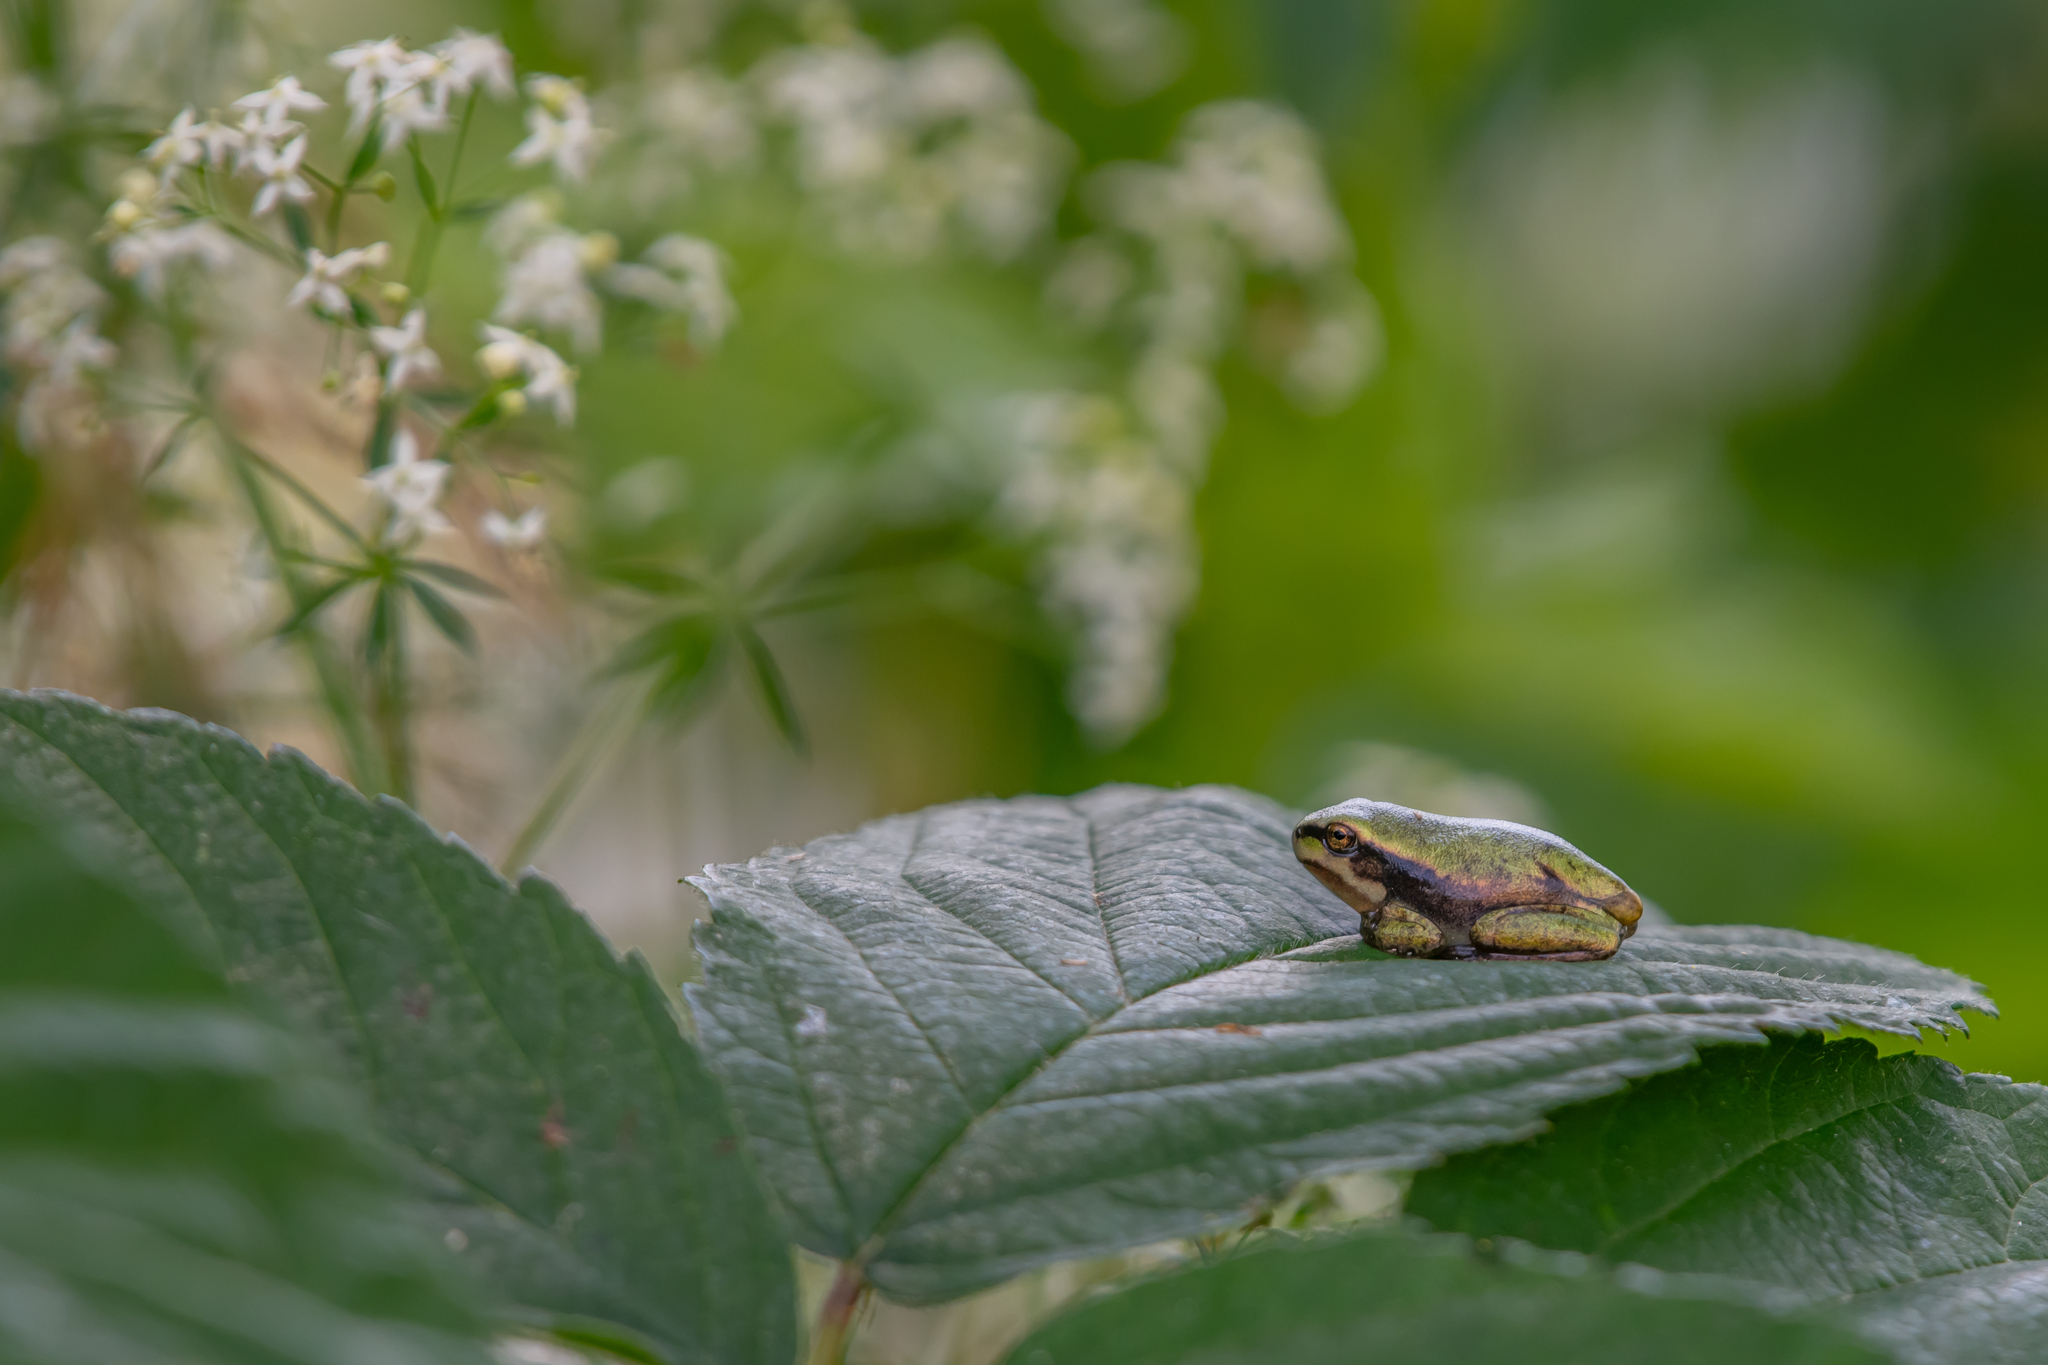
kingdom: Animalia
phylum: Chordata
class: Amphibia
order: Anura
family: Hylidae
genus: Hyla
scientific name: Hyla arborea
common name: Common tree frog
